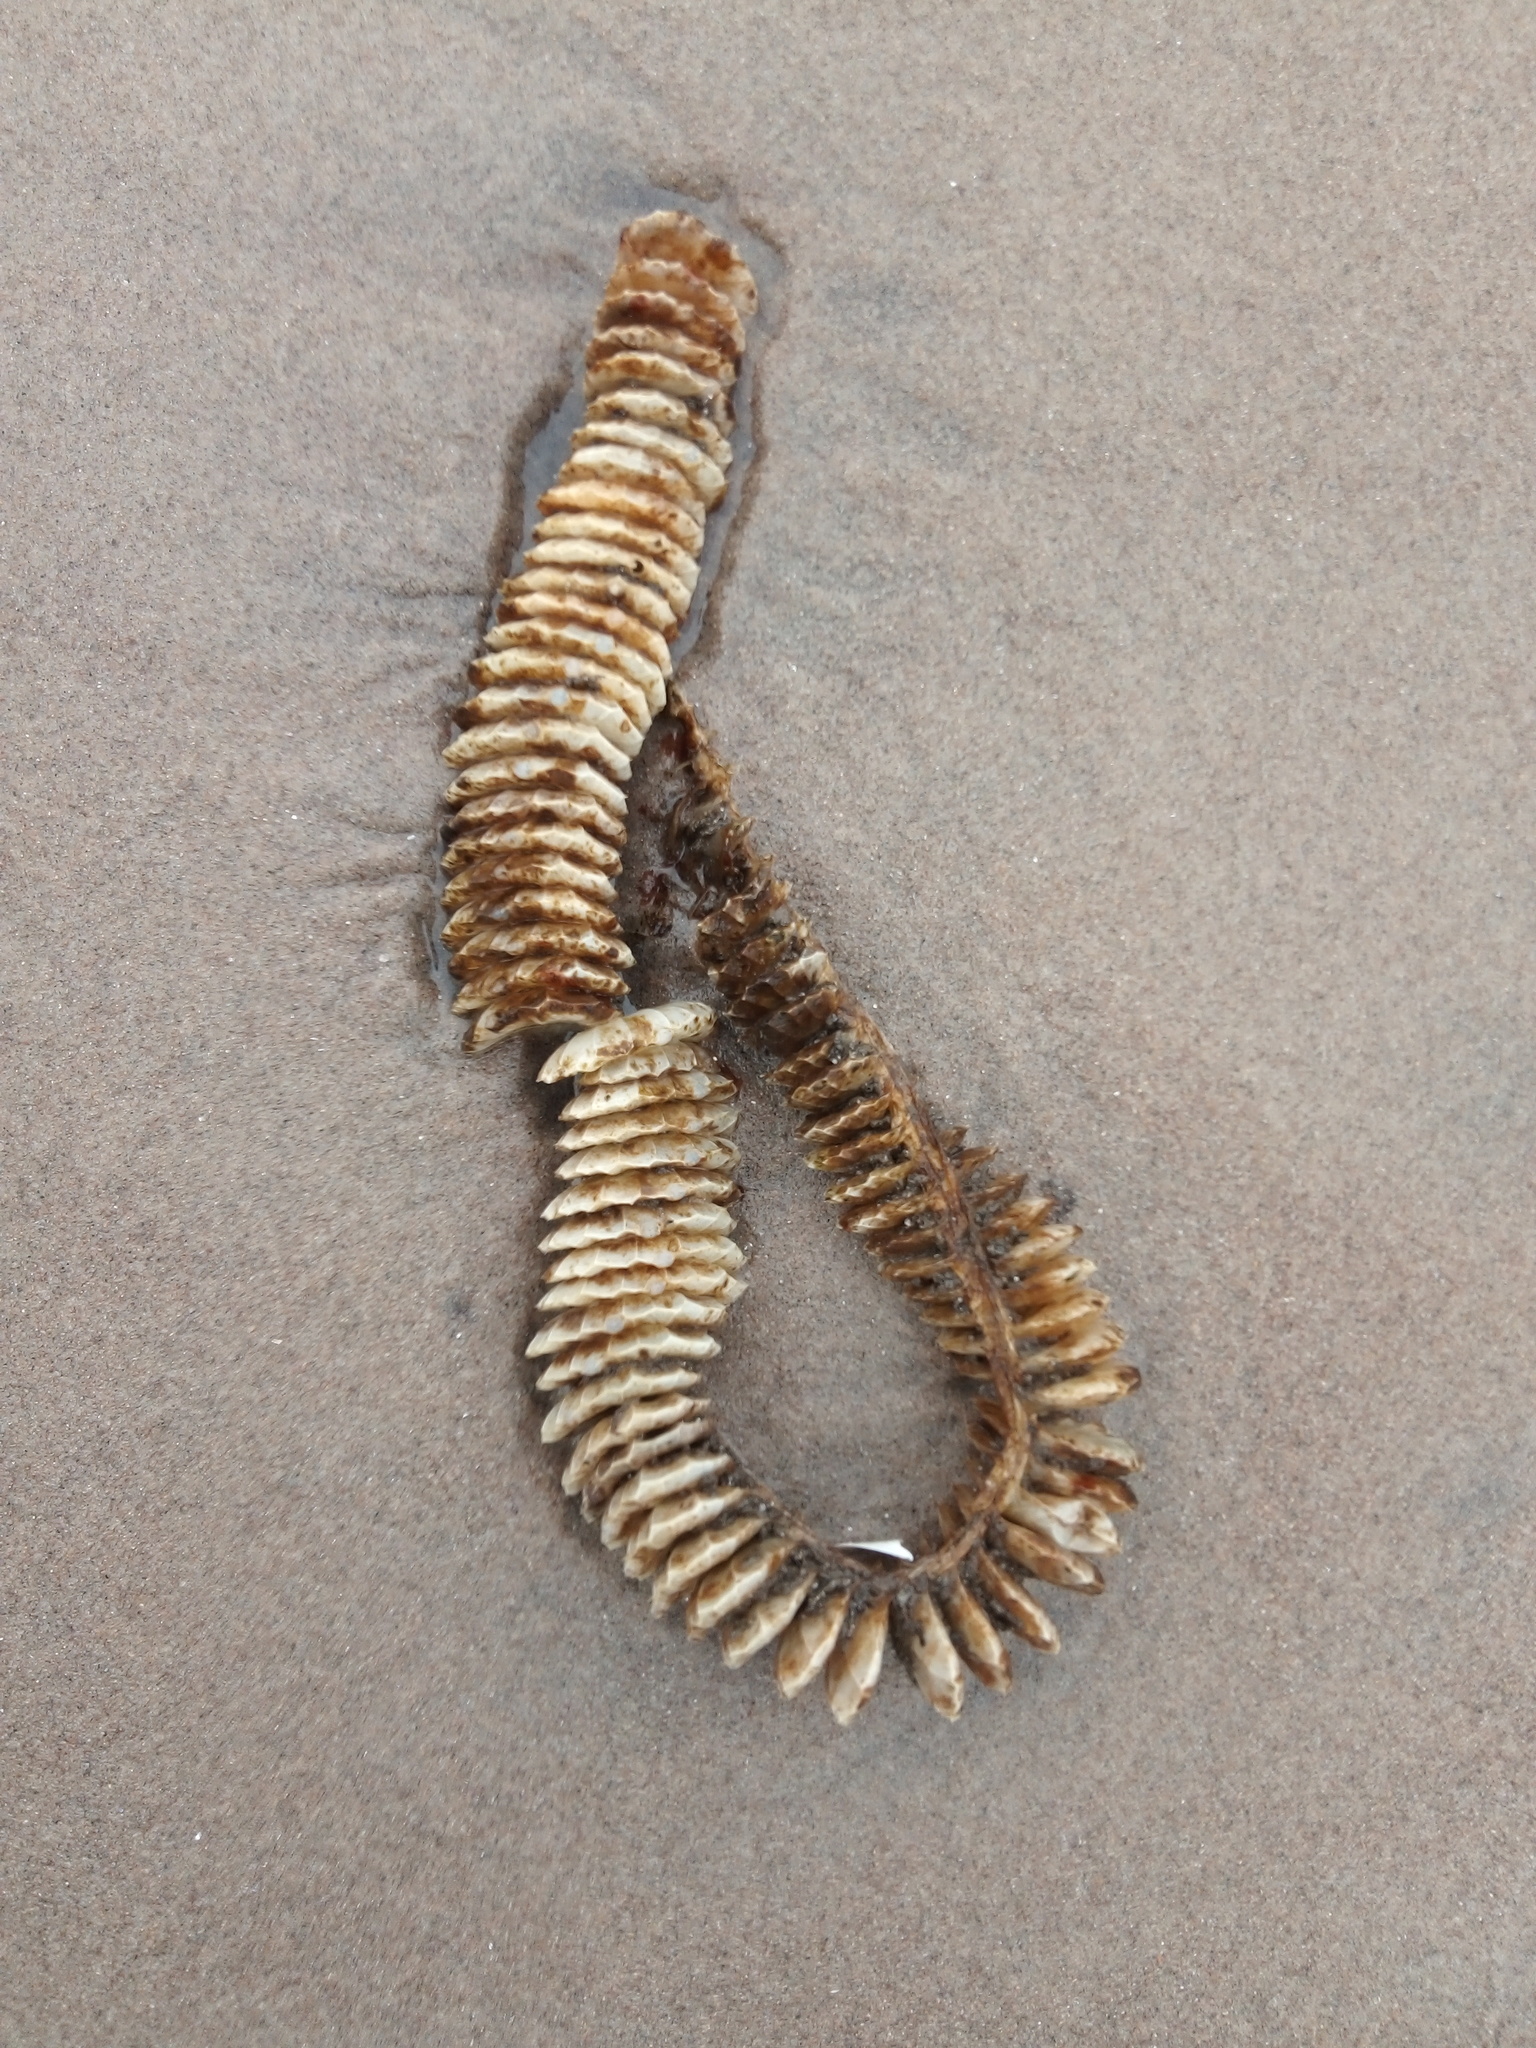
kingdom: Animalia
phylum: Mollusca
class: Gastropoda
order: Neogastropoda
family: Busyconidae
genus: Busycotypus
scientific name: Busycotypus canaliculatus
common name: Channeled whelk
